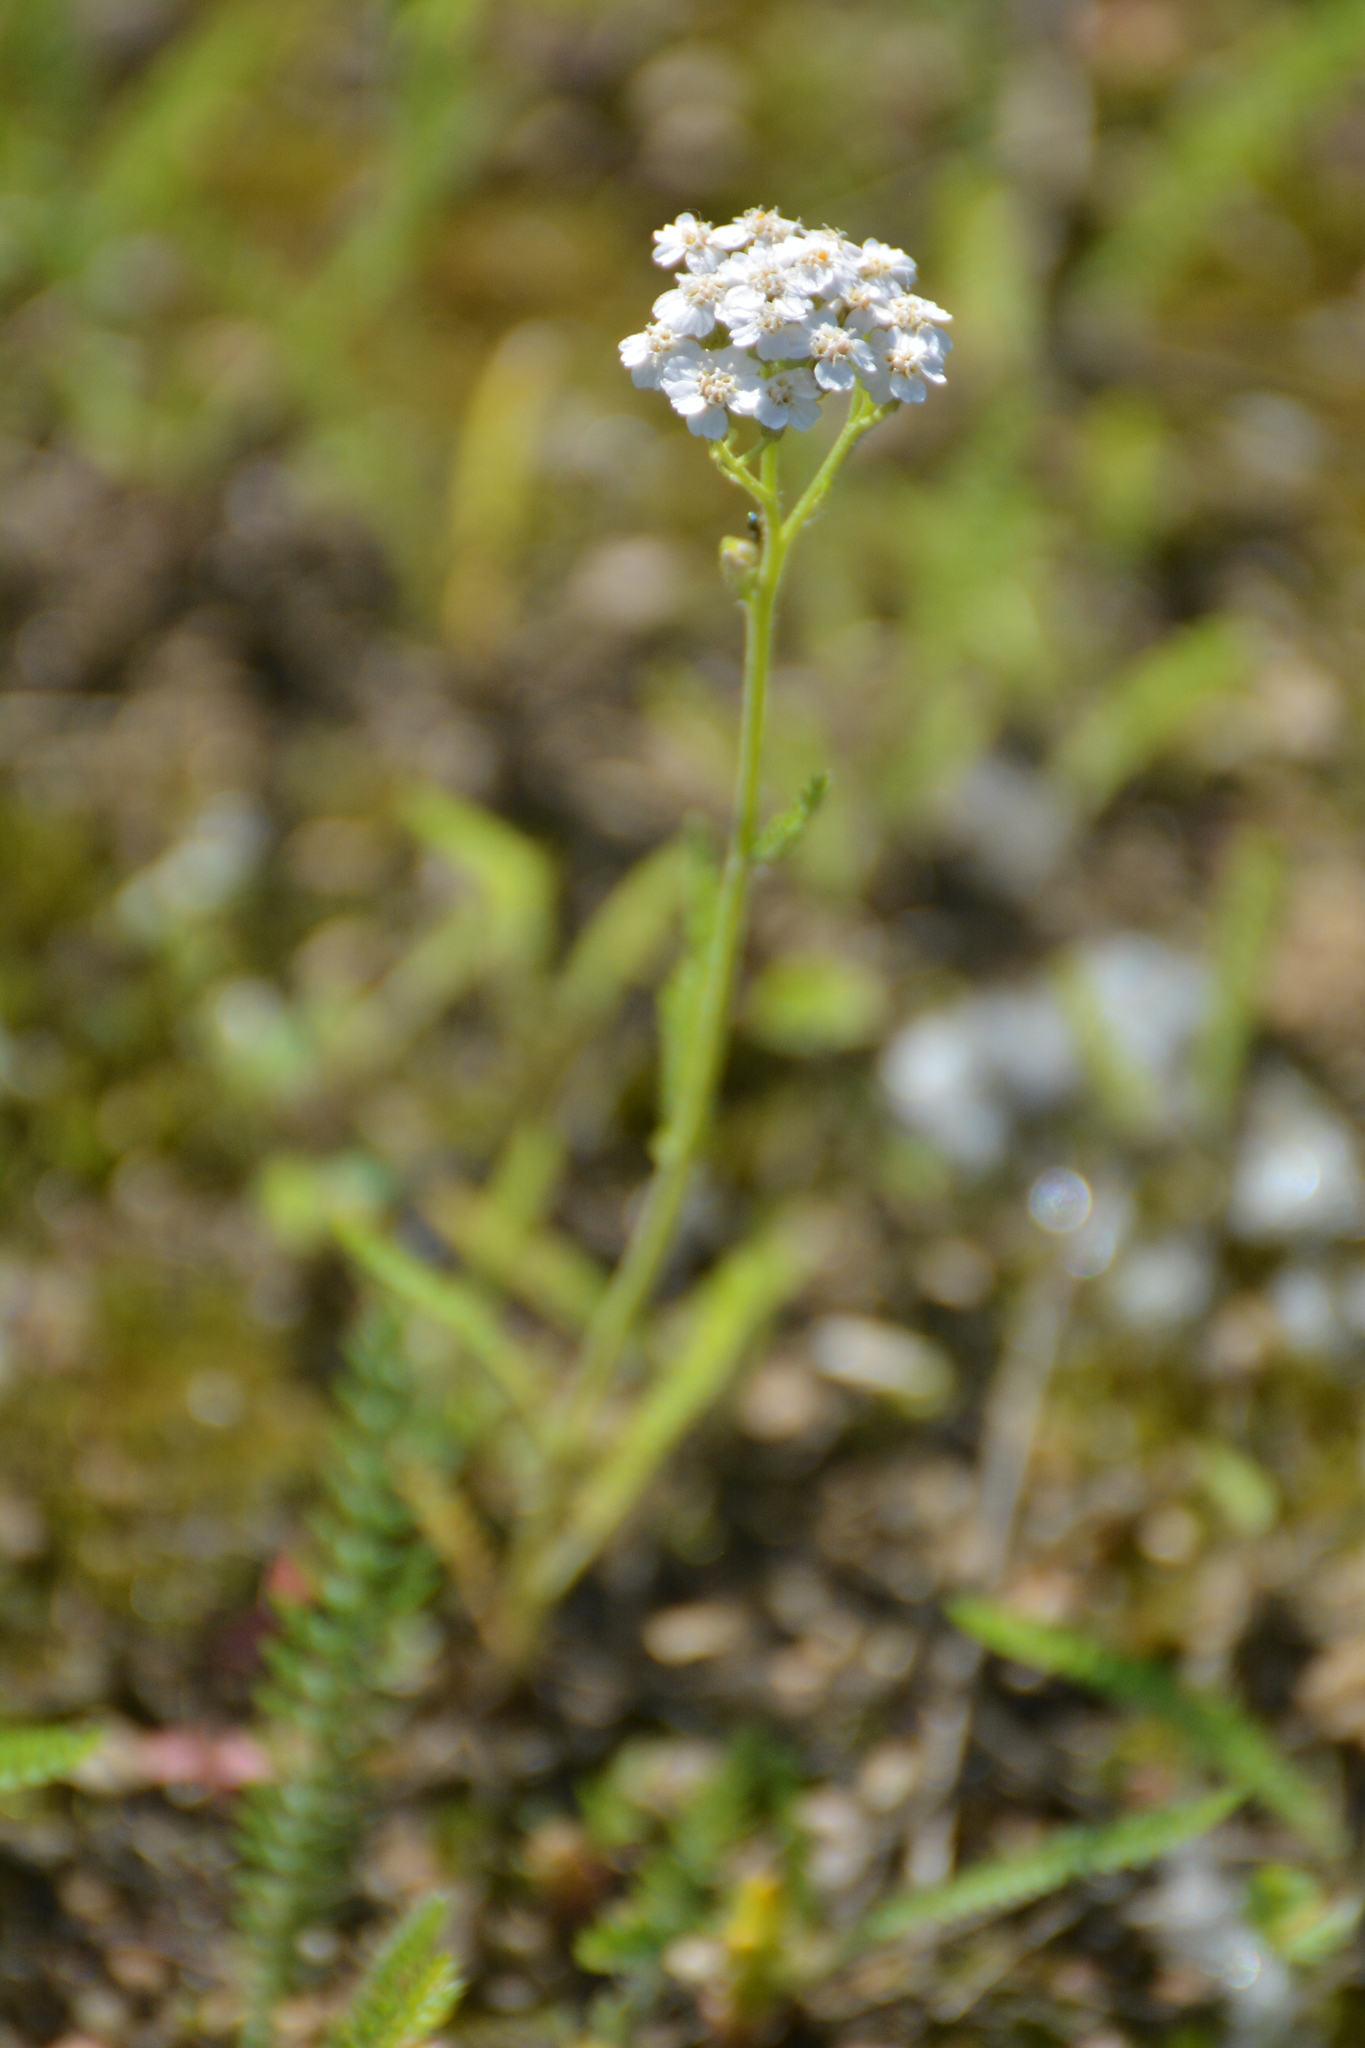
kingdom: Plantae
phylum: Tracheophyta
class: Magnoliopsida
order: Asterales
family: Asteraceae
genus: Achillea
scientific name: Achillea millefolium
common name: Yarrow
